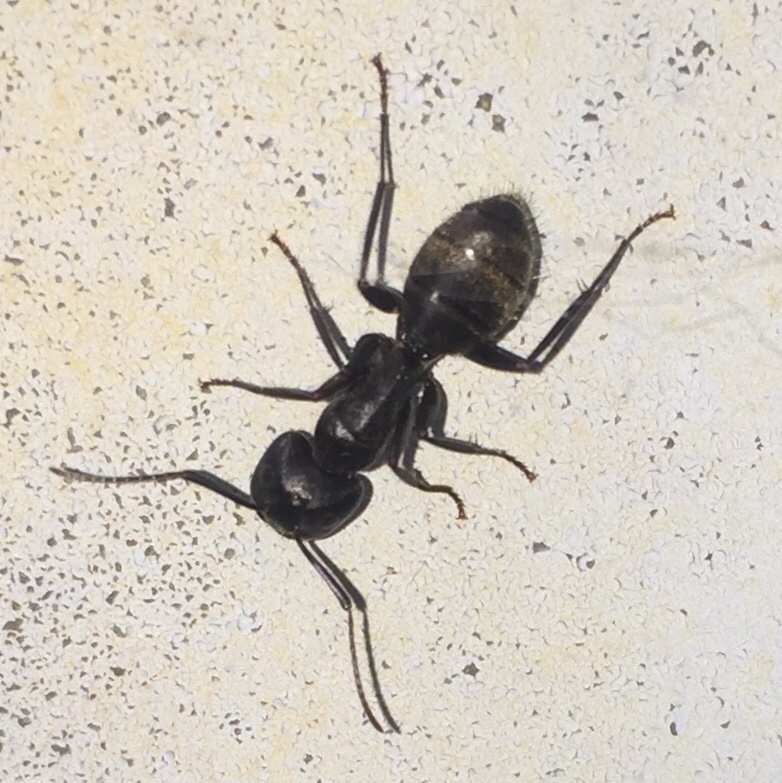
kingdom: Animalia
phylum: Arthropoda
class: Insecta
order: Hymenoptera
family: Formicidae
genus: Camponotus
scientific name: Camponotus pennsylvanicus
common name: Black carpenter ant
